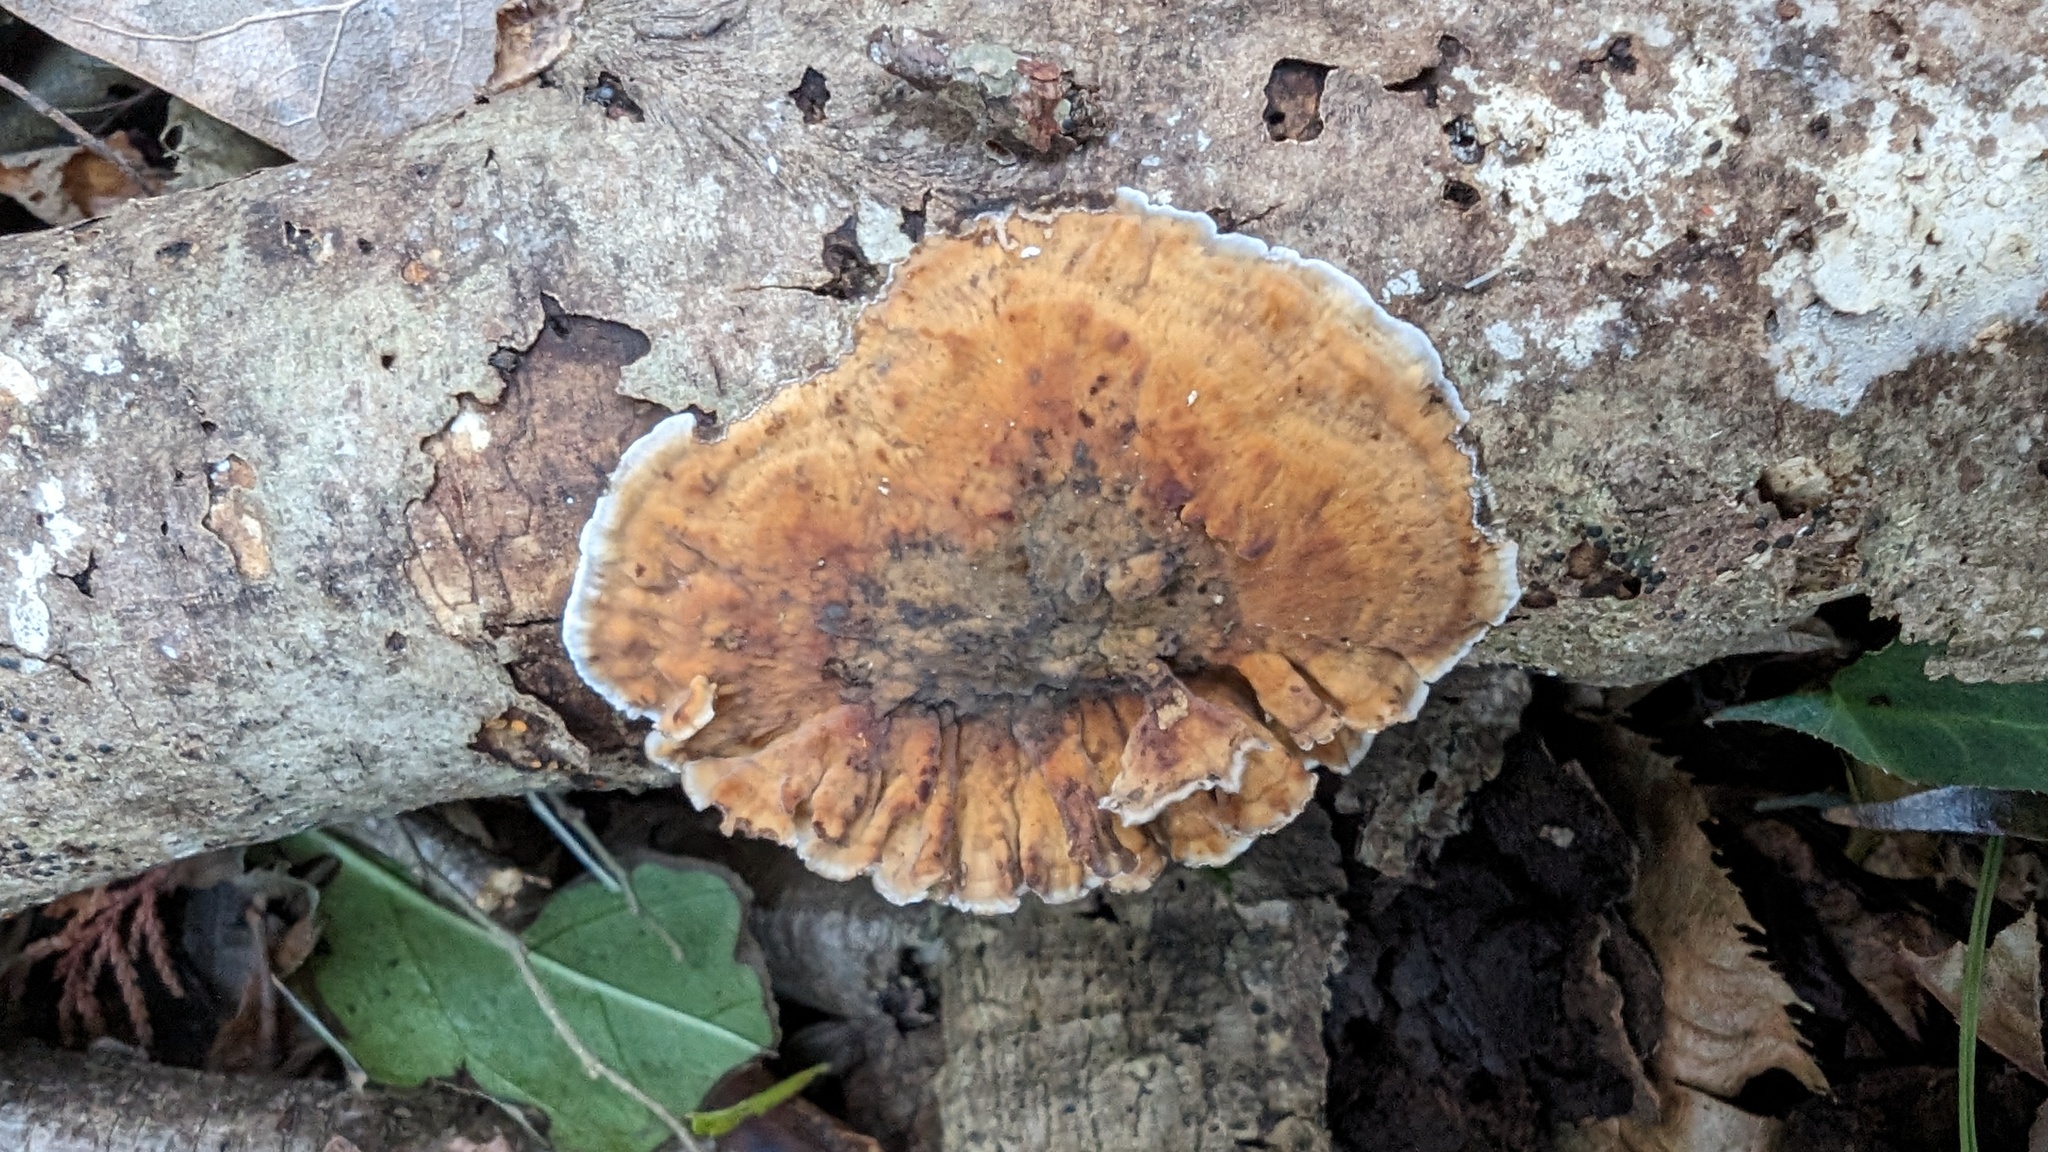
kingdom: Fungi
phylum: Basidiomycota
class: Agaricomycetes
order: Russulales
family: Stereaceae
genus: Stereum
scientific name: Stereum gausapatum
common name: Bleeding oak crust
